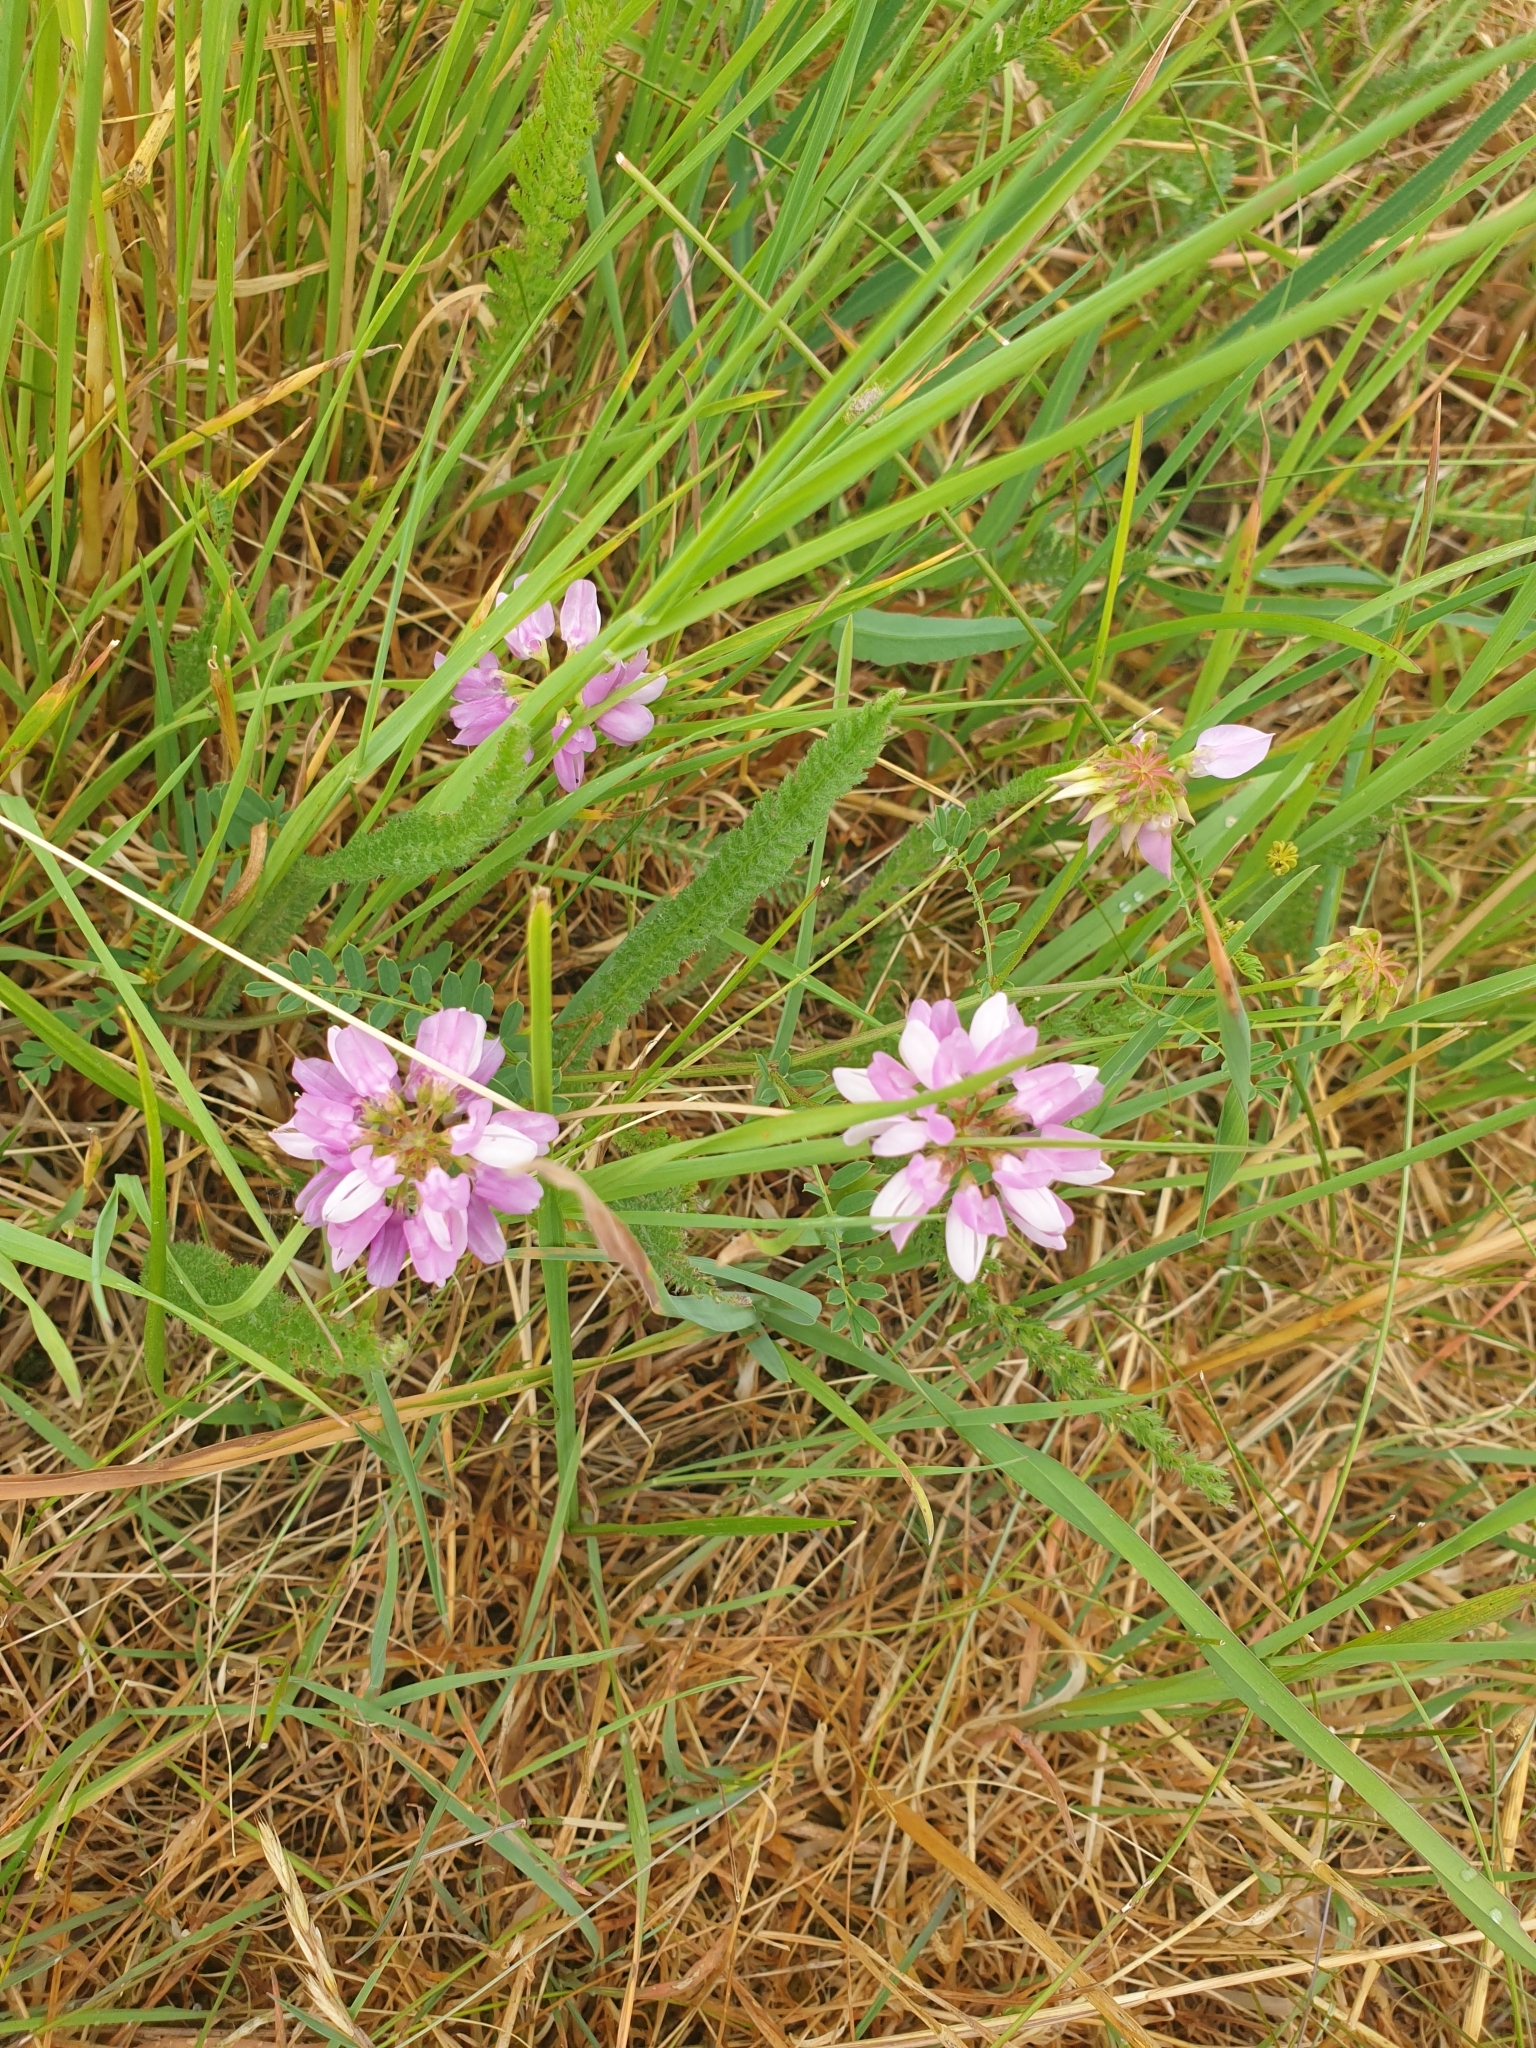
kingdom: Plantae
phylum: Tracheophyta
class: Magnoliopsida
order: Fabales
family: Fabaceae
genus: Coronilla
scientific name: Coronilla varia
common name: Crownvetch
